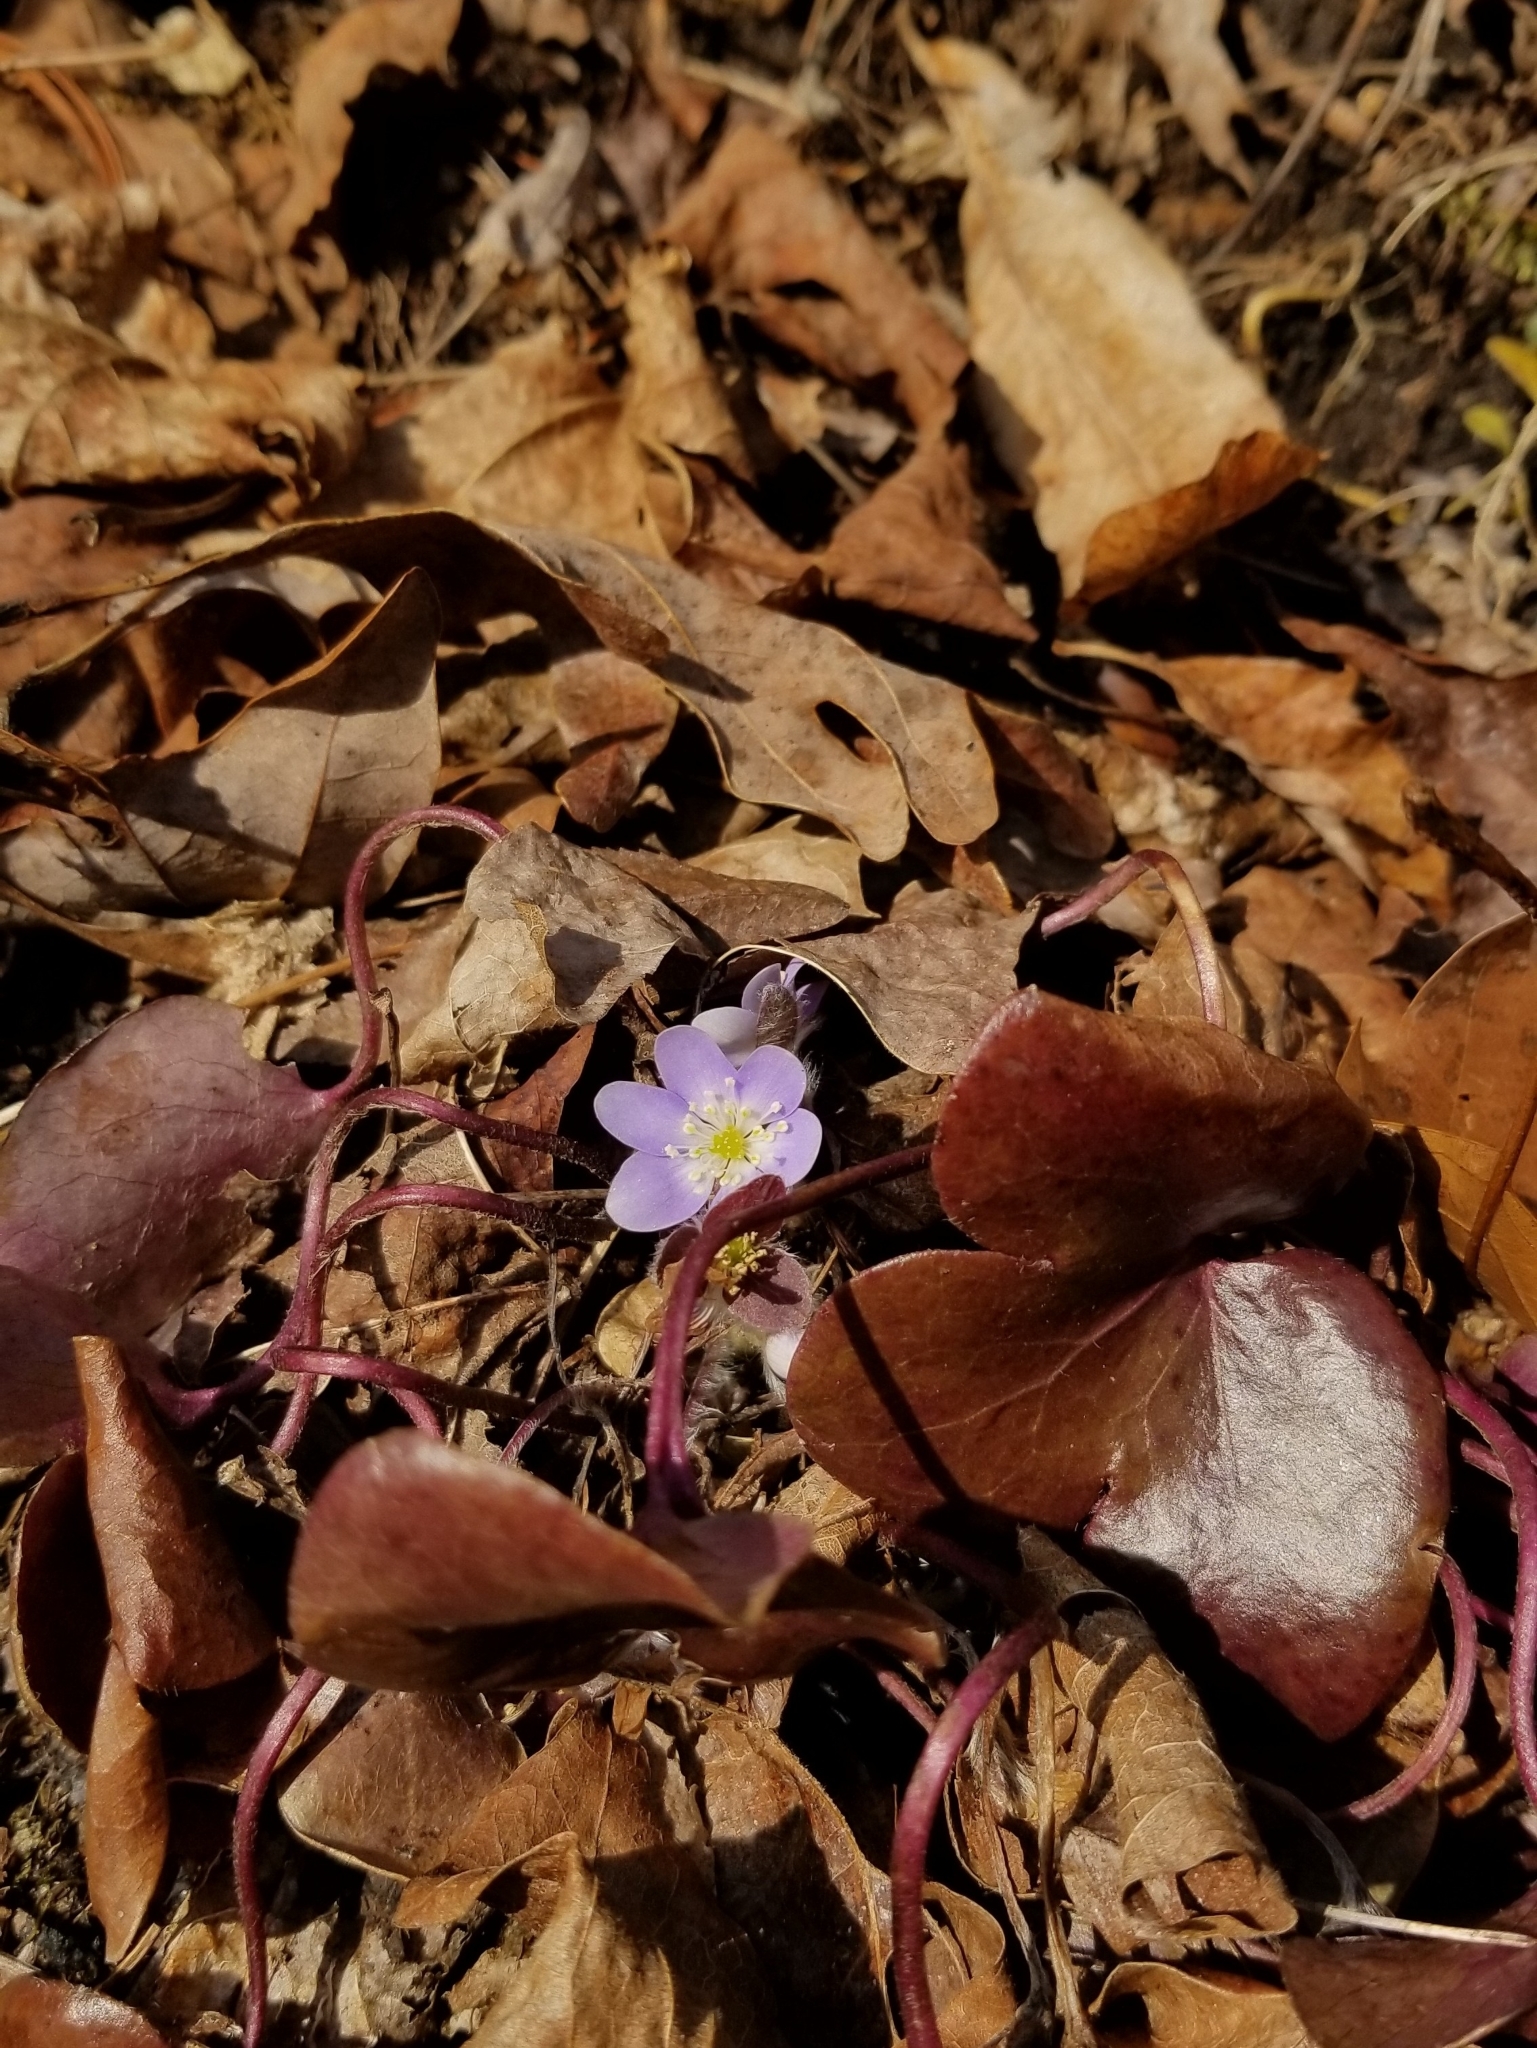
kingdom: Plantae
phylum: Tracheophyta
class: Magnoliopsida
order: Ranunculales
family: Ranunculaceae
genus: Hepatica
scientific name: Hepatica americana
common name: American hepatica
